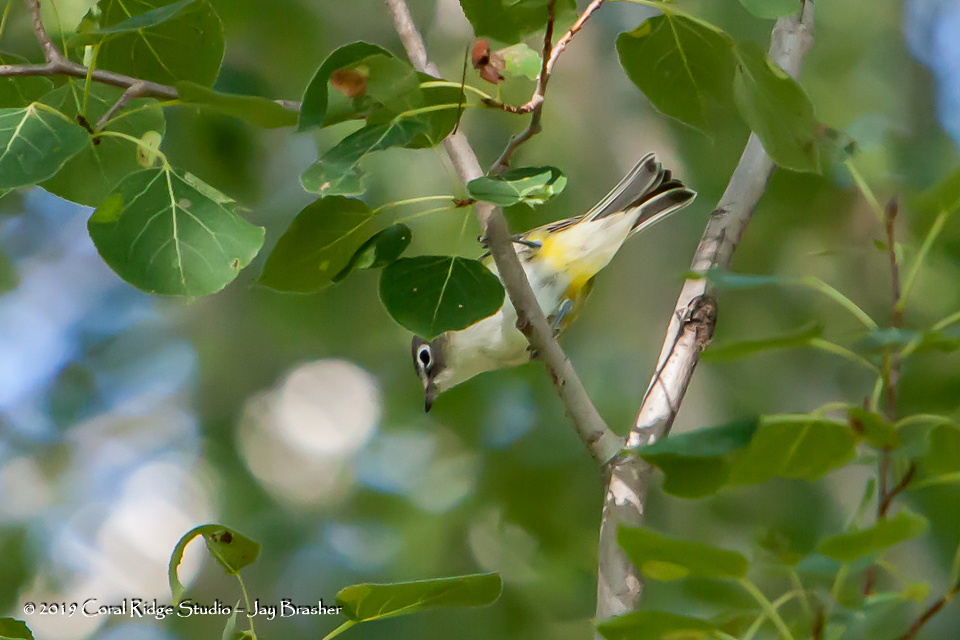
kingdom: Animalia
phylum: Chordata
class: Aves
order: Passeriformes
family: Vireonidae
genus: Vireo
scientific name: Vireo solitarius
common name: Blue-headed vireo
